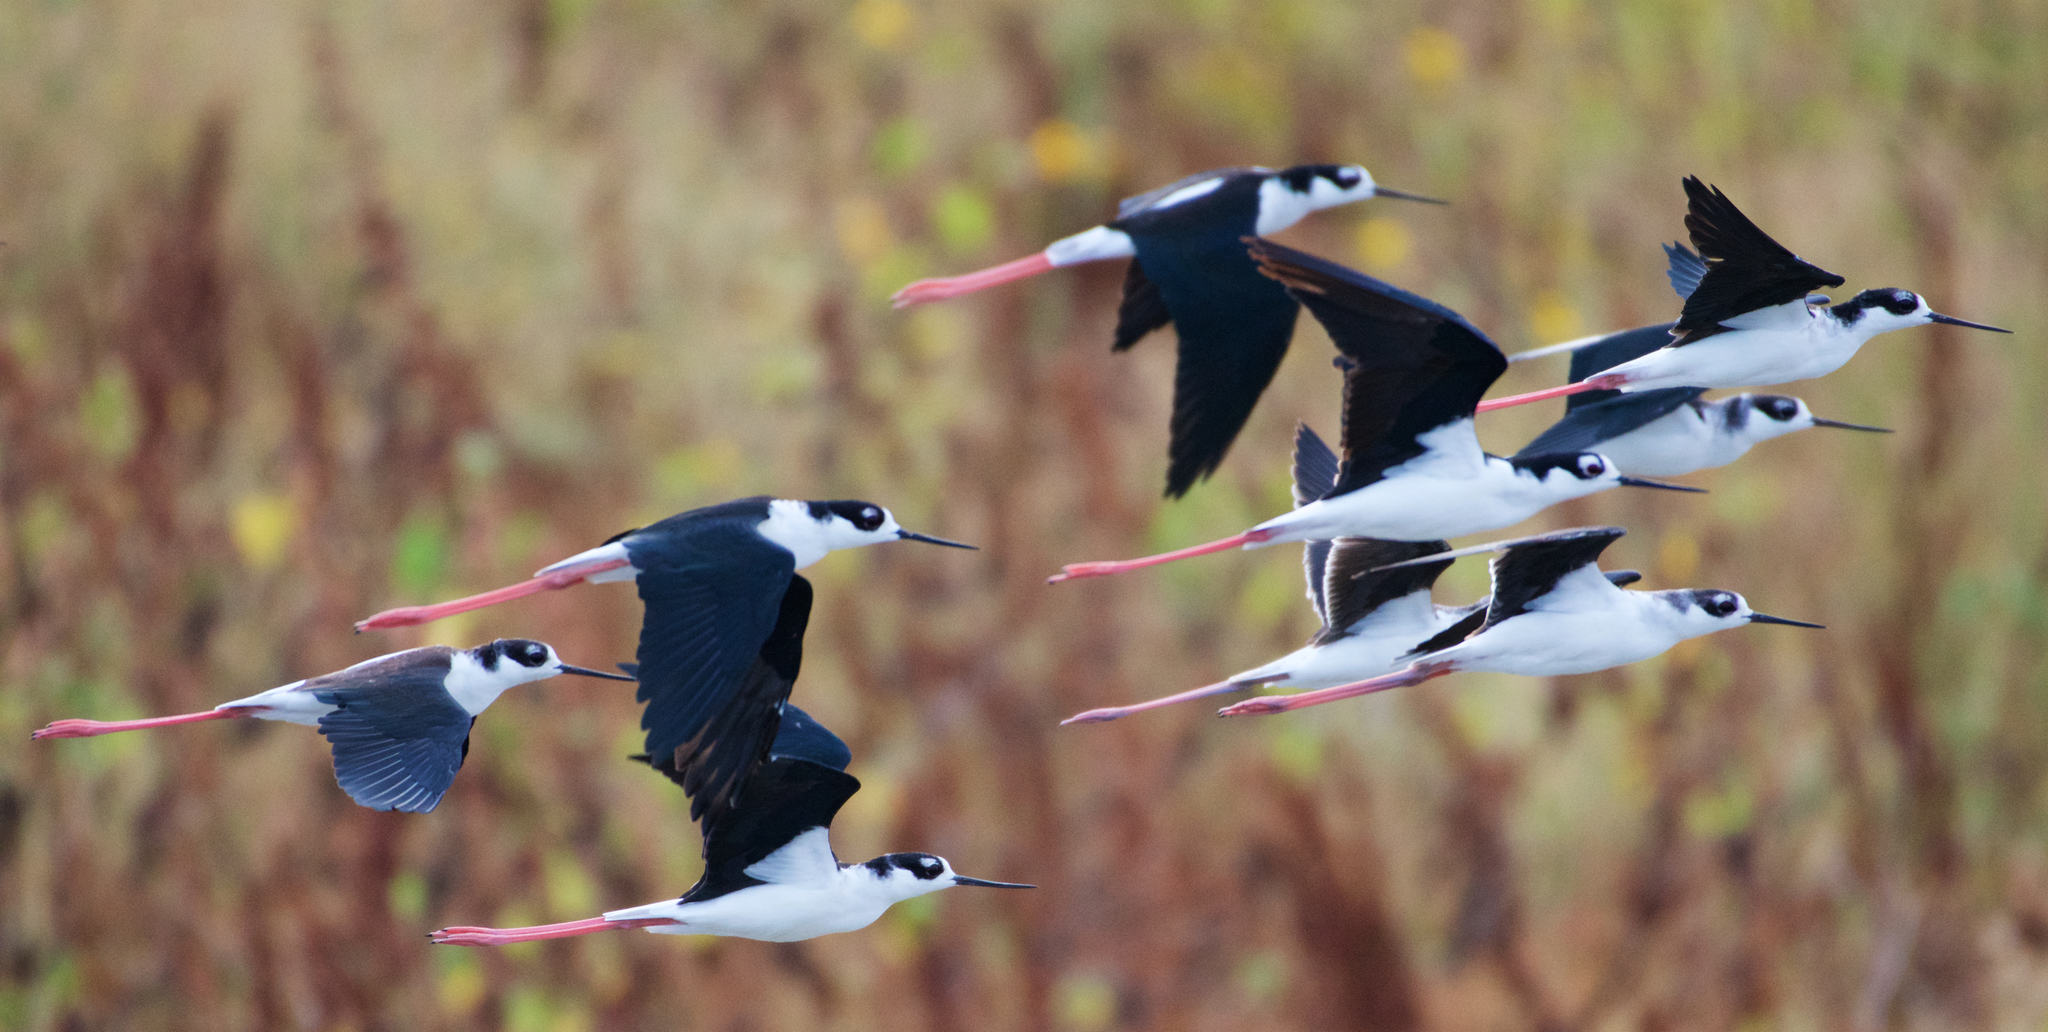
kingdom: Animalia
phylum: Chordata
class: Aves
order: Charadriiformes
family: Recurvirostridae
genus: Himantopus
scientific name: Himantopus mexicanus
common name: Black-necked stilt
